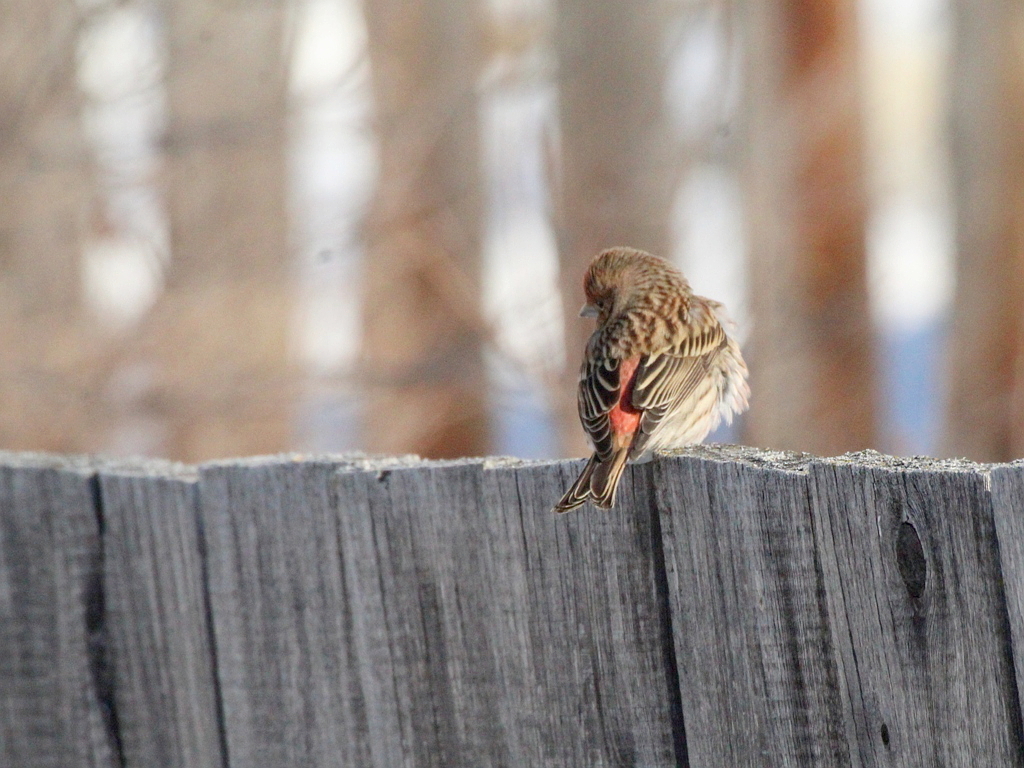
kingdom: Animalia
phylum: Chordata
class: Aves
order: Passeriformes
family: Fringillidae
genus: Carpodacus
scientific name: Carpodacus roseus
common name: Pallas's rosefinch
